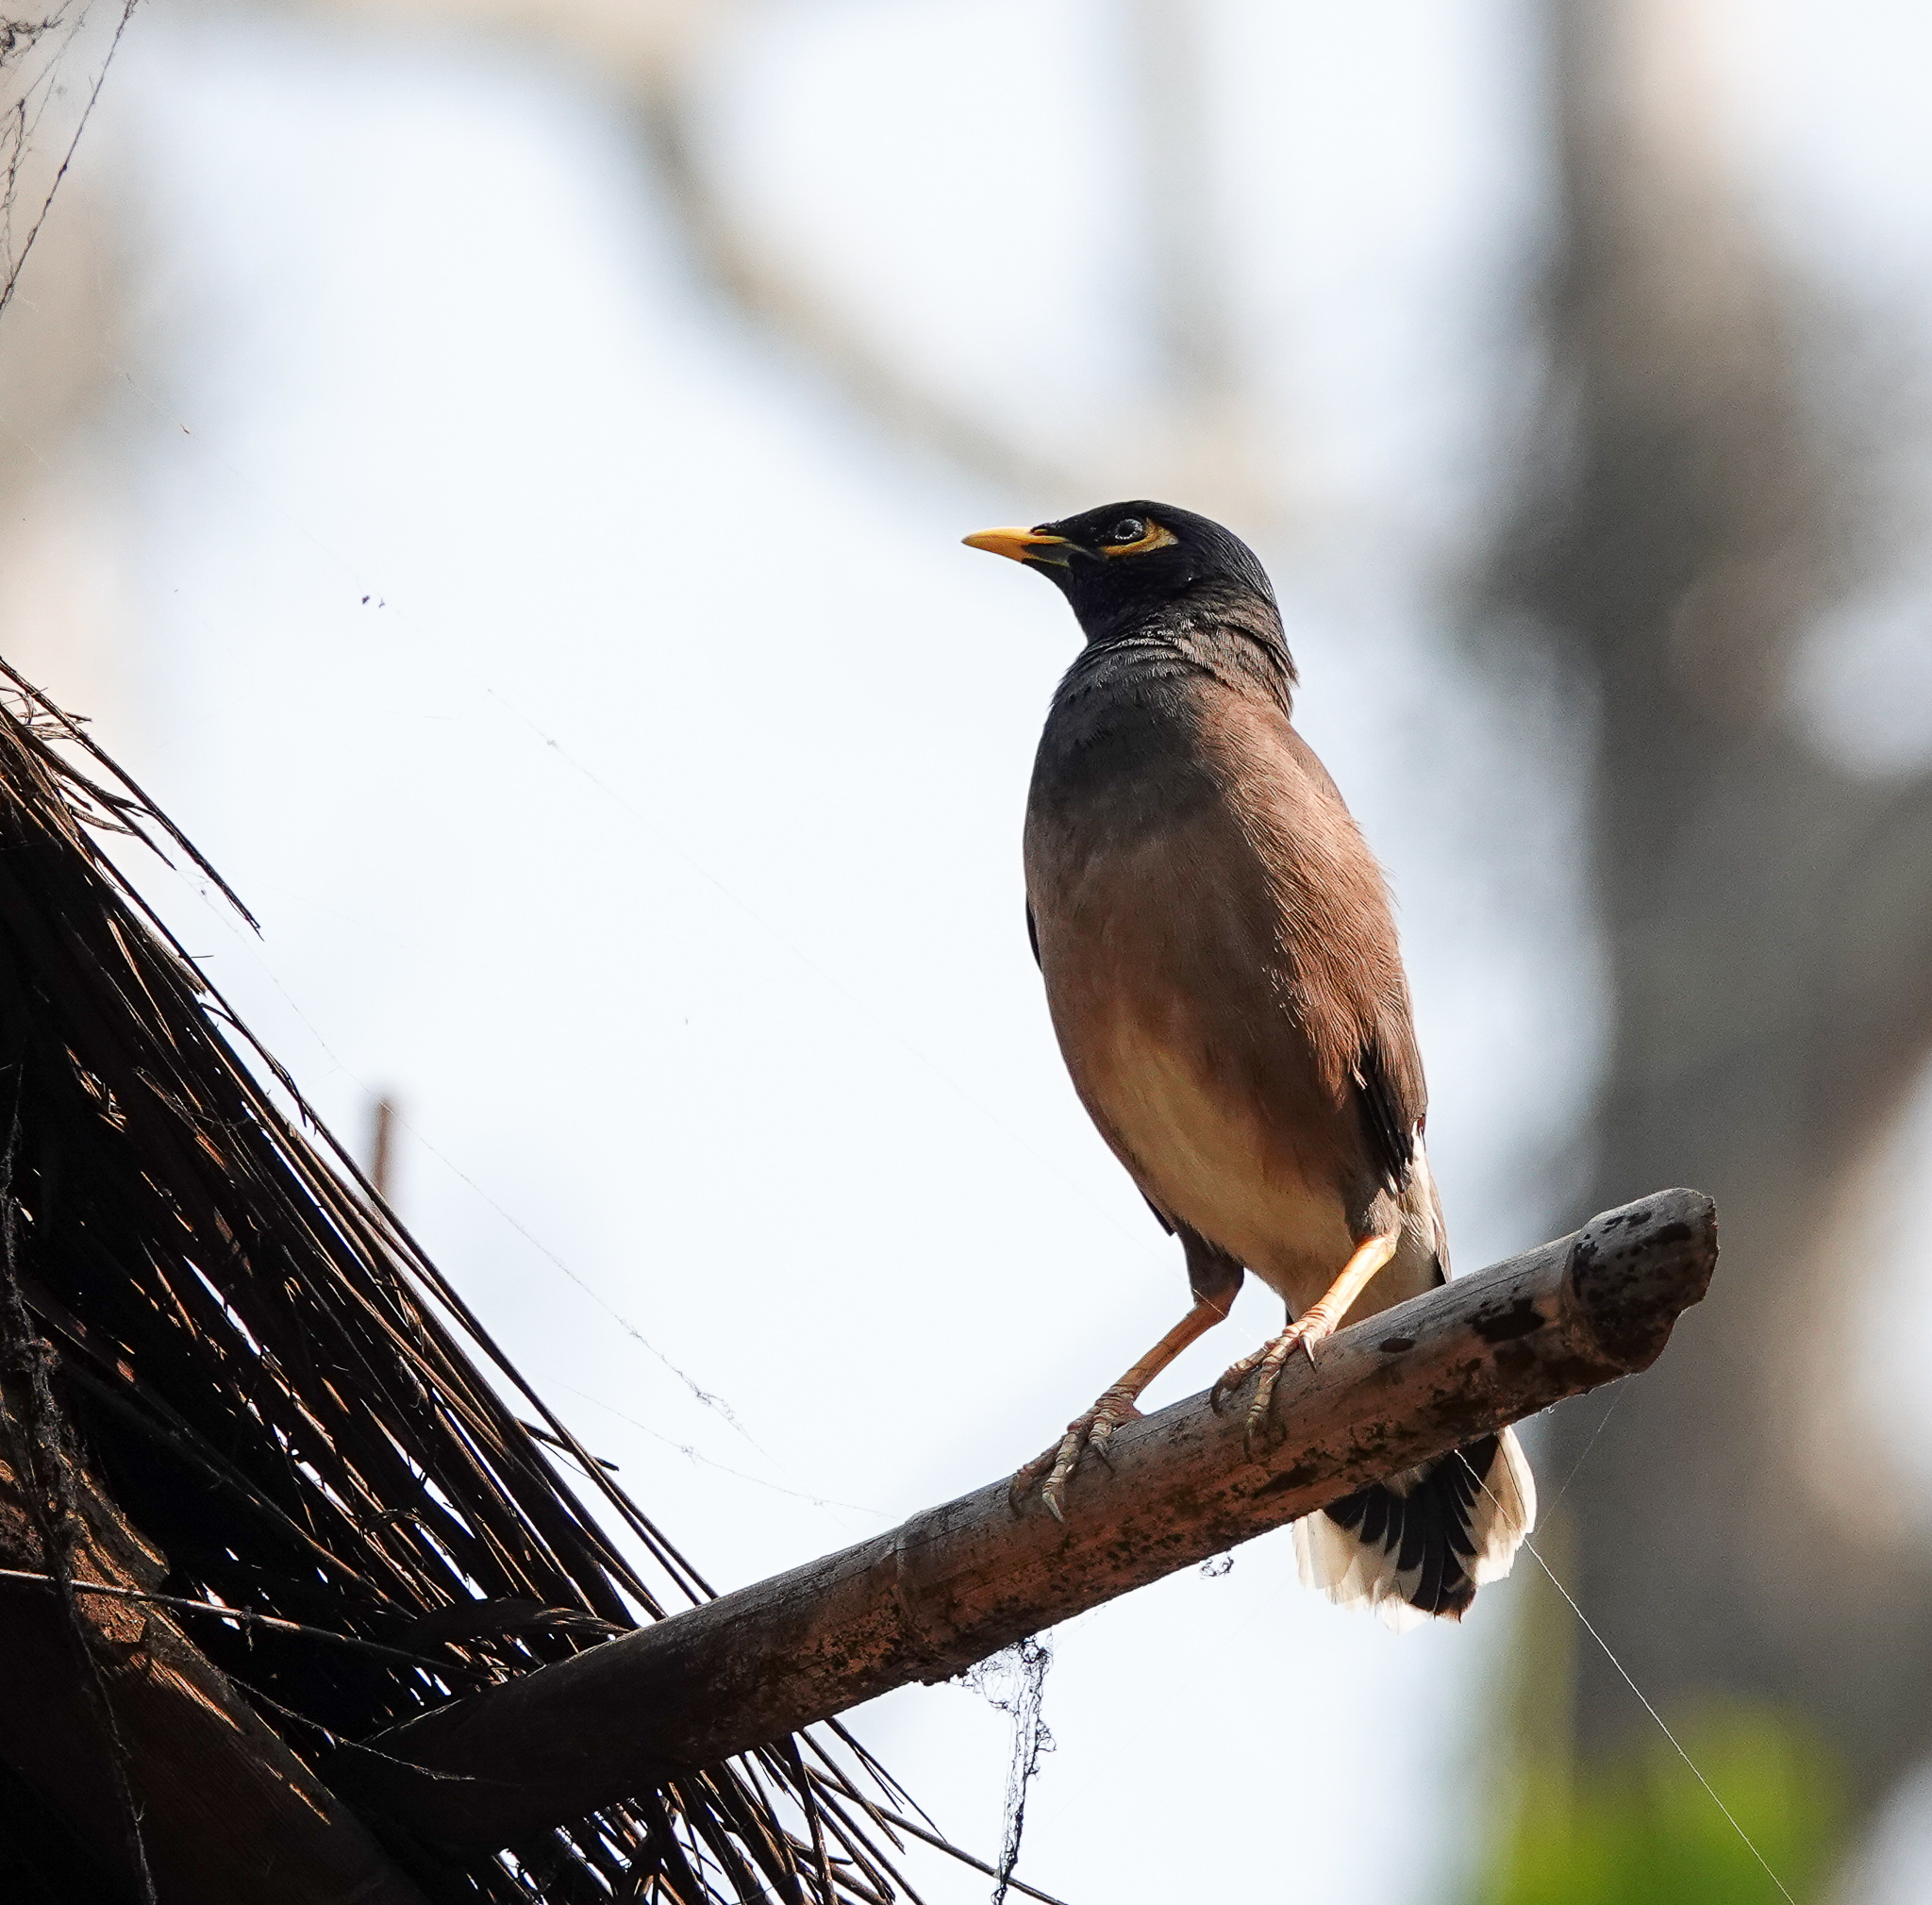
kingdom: Animalia
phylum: Chordata
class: Aves
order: Passeriformes
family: Sturnidae
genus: Acridotheres
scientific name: Acridotheres tristis
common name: Common myna
